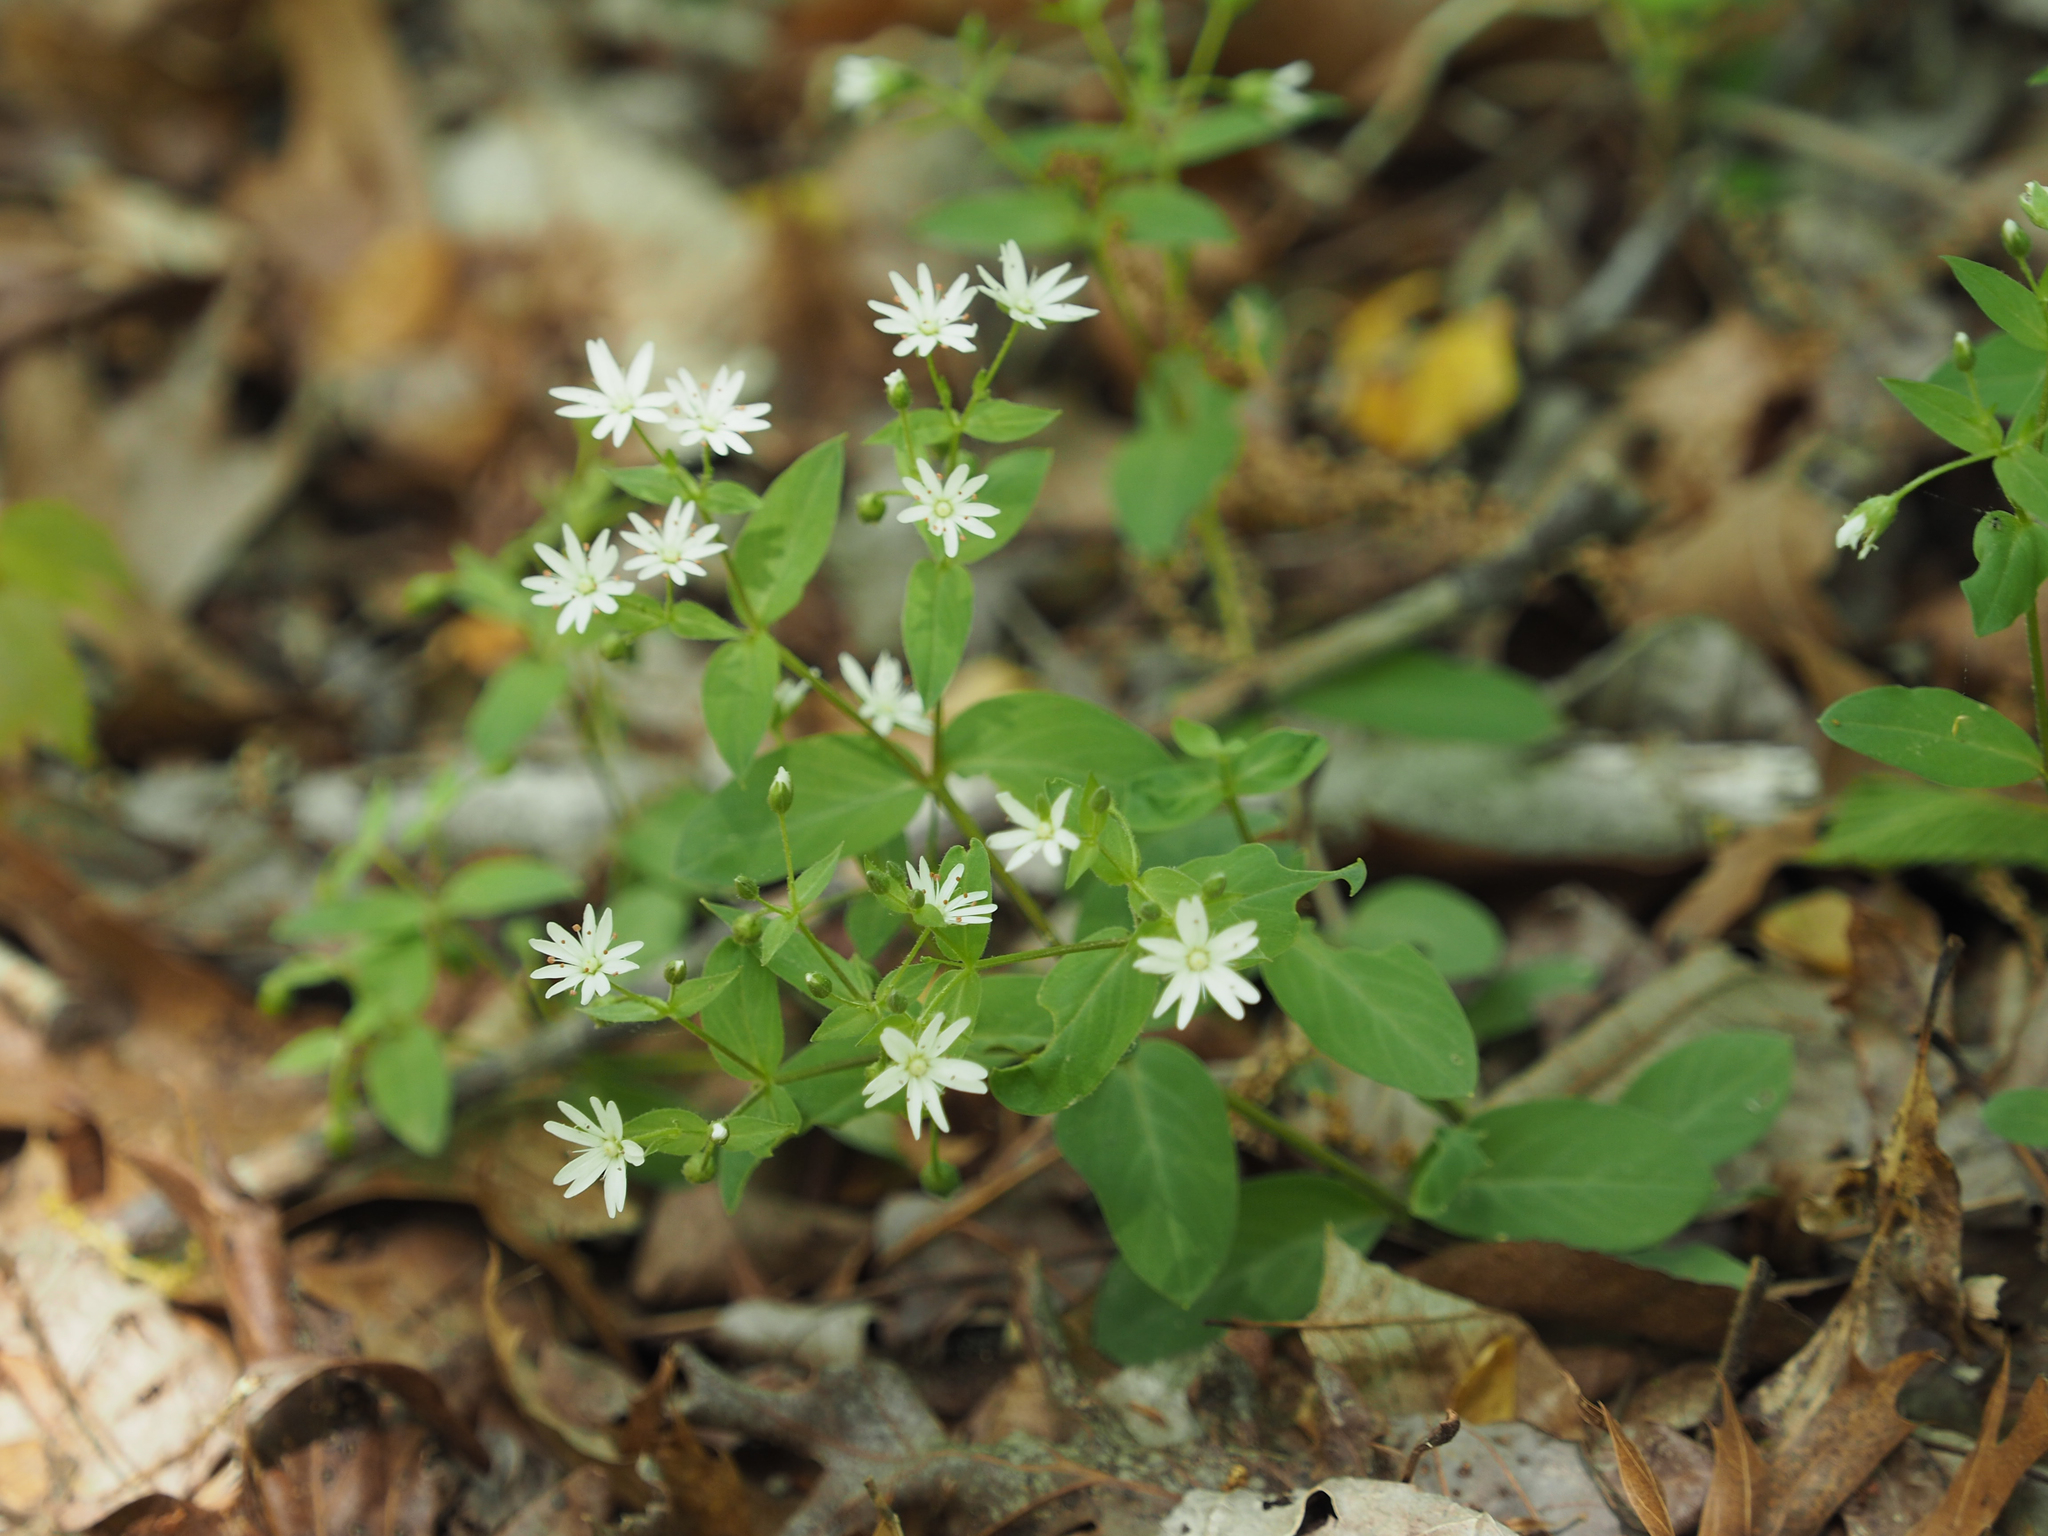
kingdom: Plantae
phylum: Tracheophyta
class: Magnoliopsida
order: Caryophyllales
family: Caryophyllaceae
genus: Stellaria
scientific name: Stellaria pubera
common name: Star chickweed
